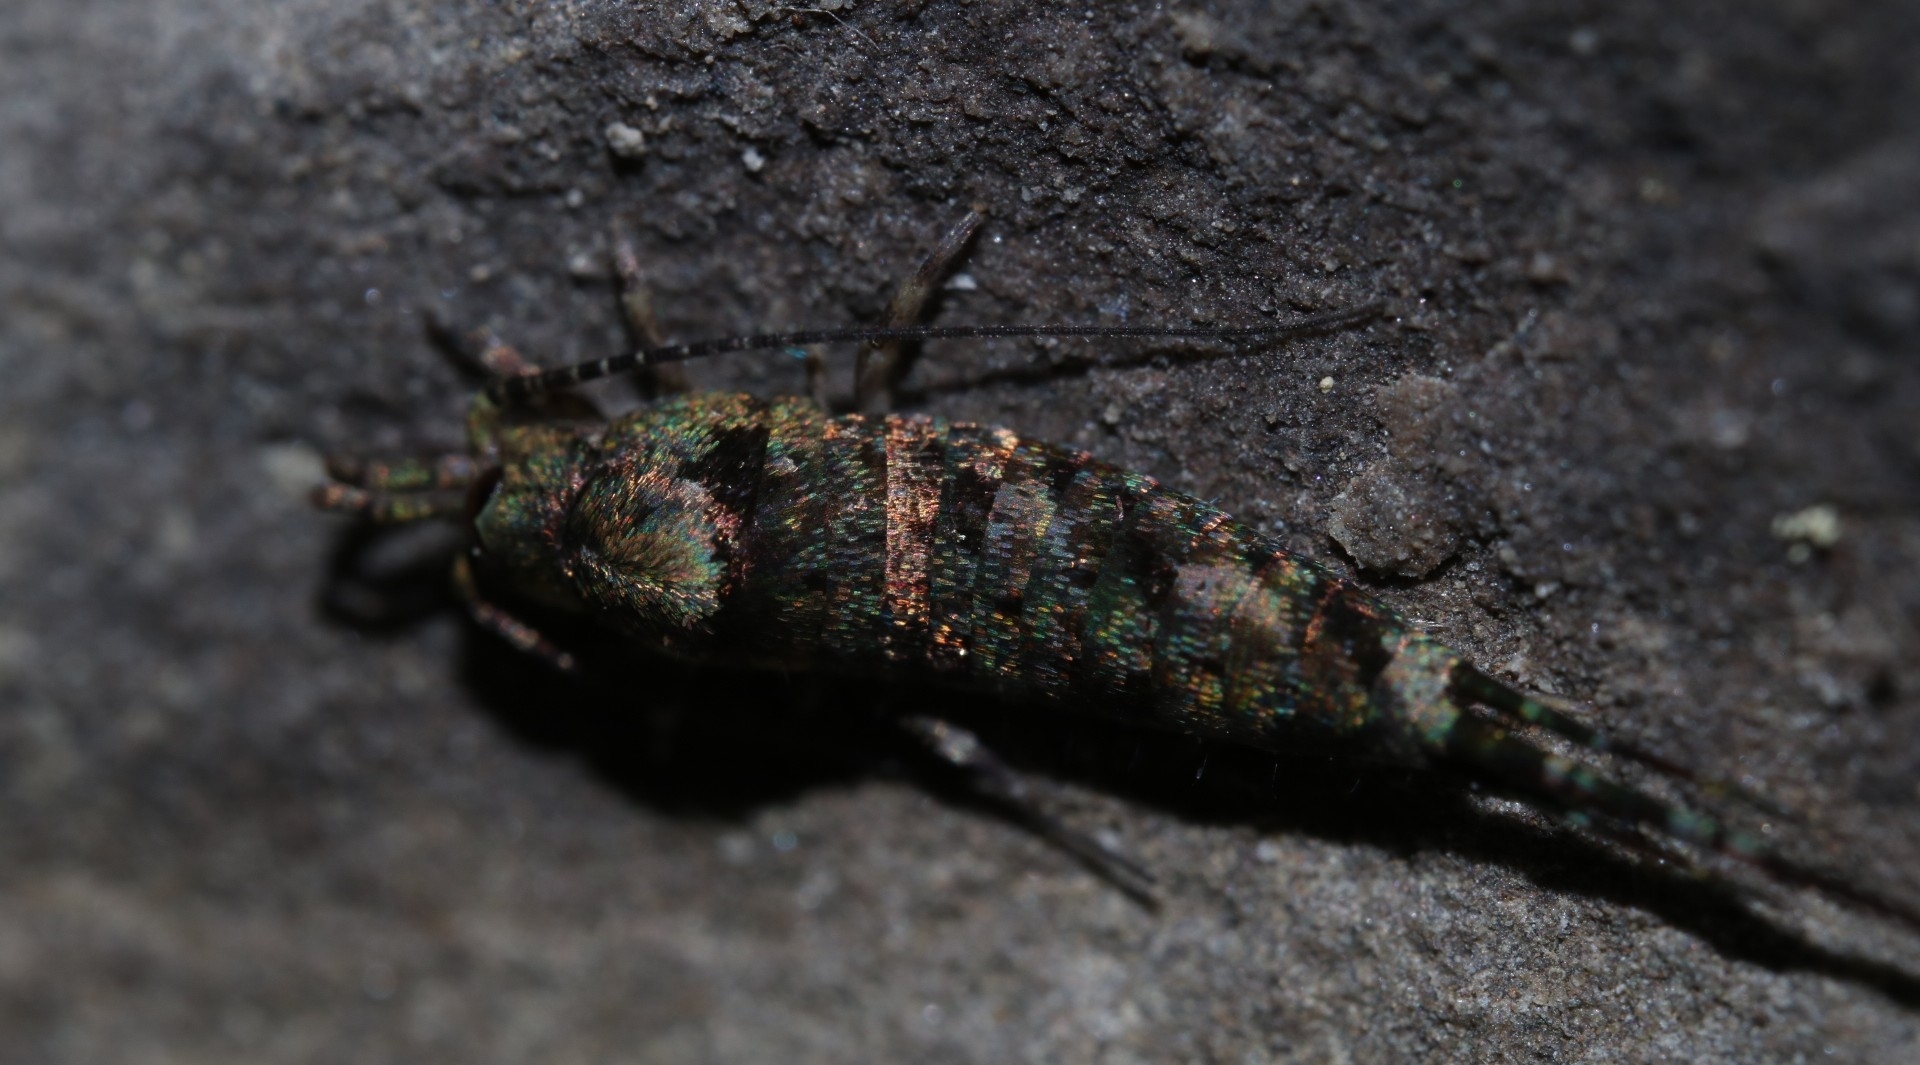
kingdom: Animalia
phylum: Arthropoda
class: Insecta
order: Archaeognatha
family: Machilidae
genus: Trigoniophthalmus
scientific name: Trigoniophthalmus alternatus
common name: Jumping bristletail
